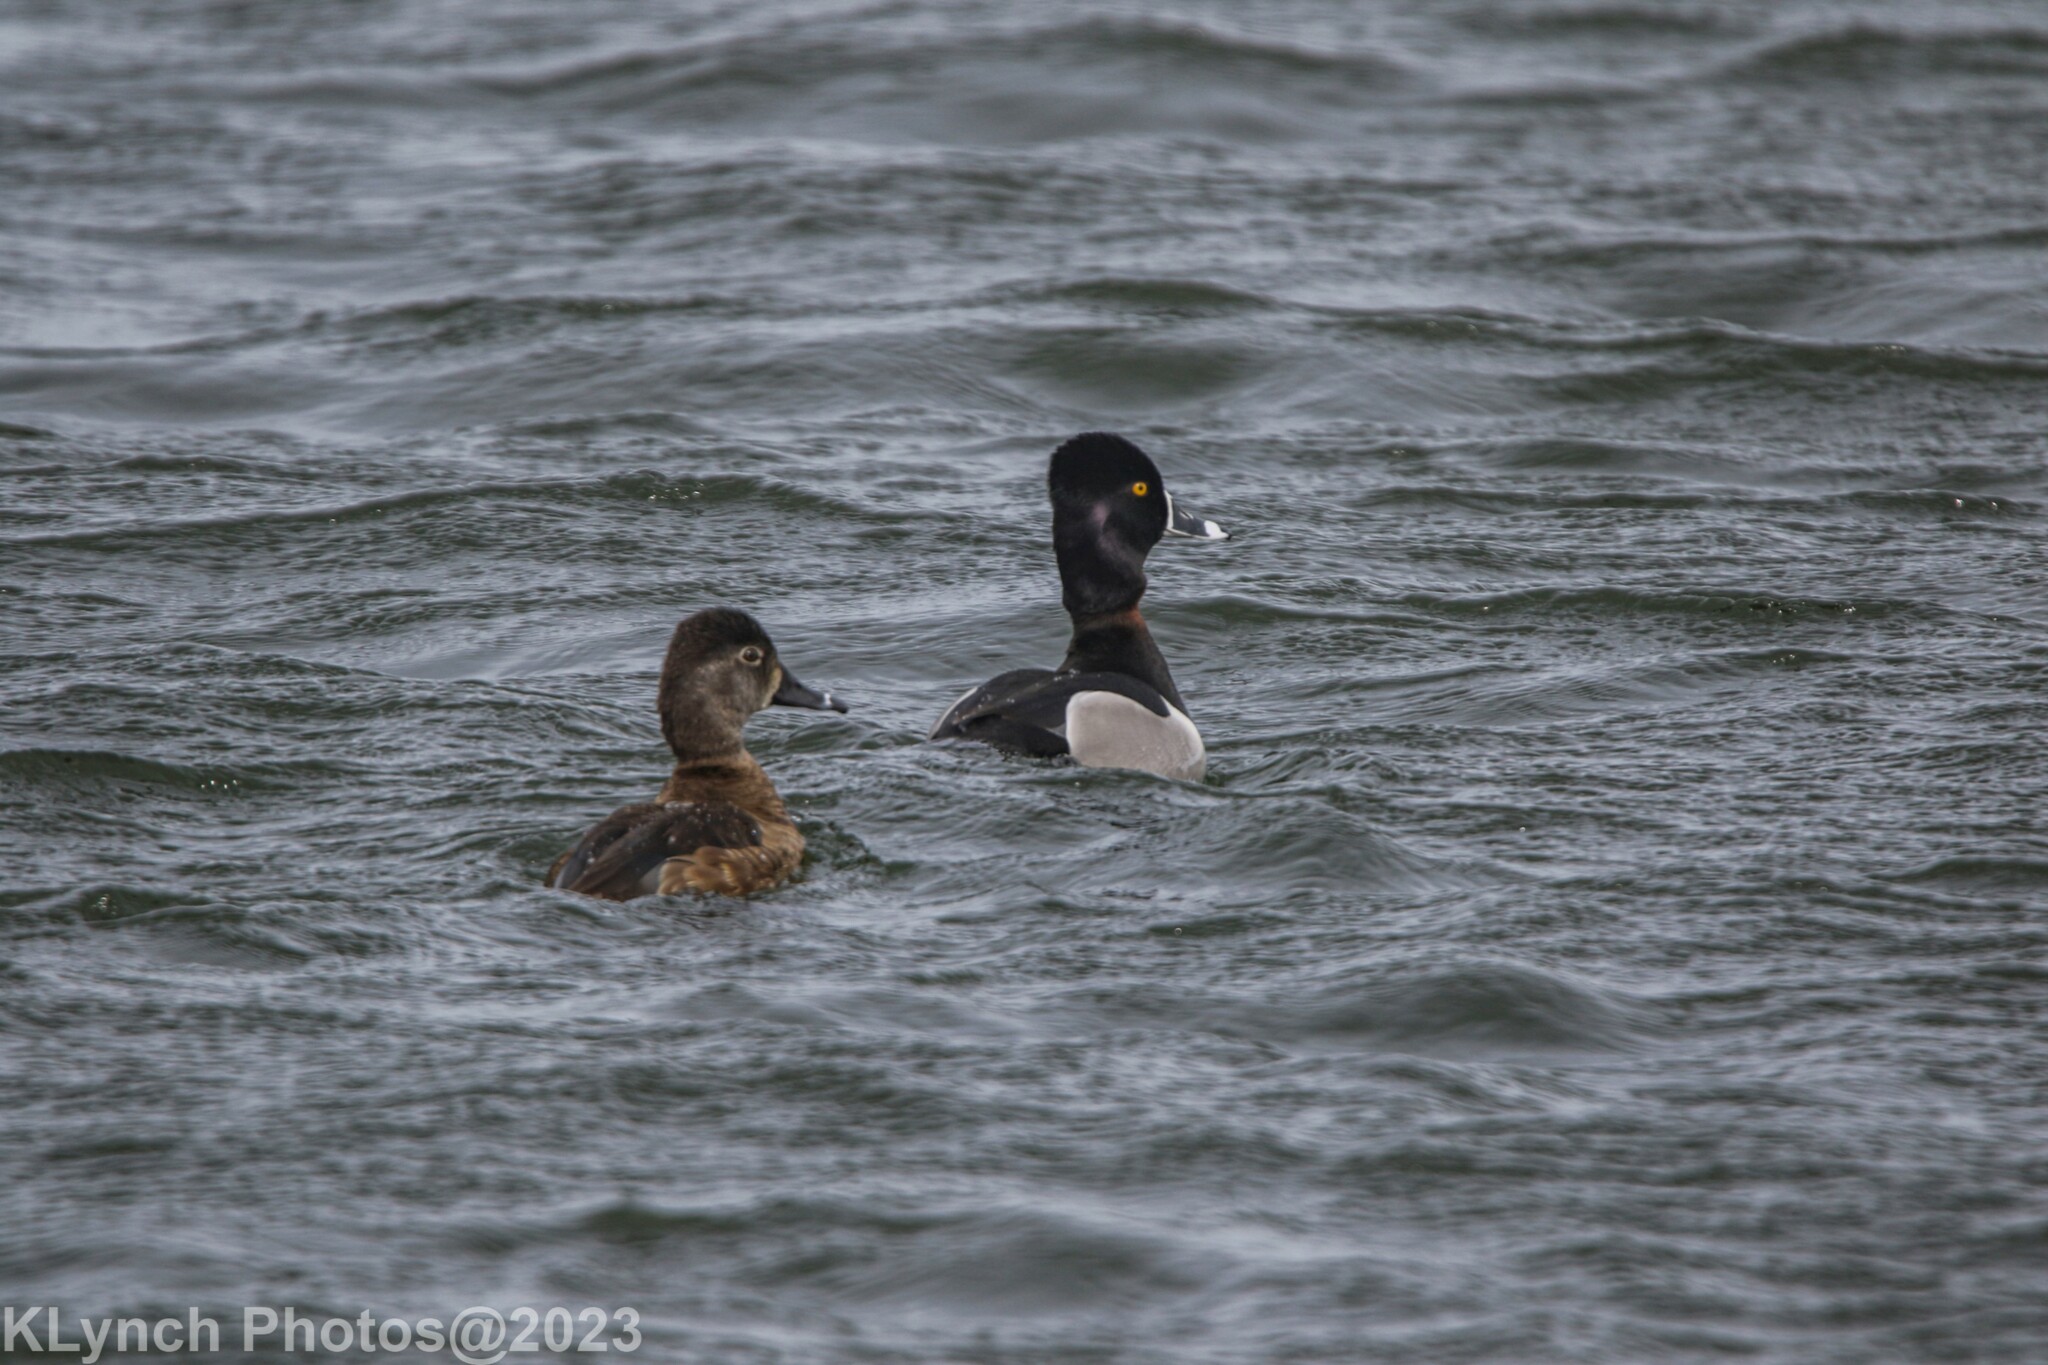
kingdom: Animalia
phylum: Chordata
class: Aves
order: Anseriformes
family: Anatidae
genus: Aythya
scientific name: Aythya collaris
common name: Ring-necked duck
